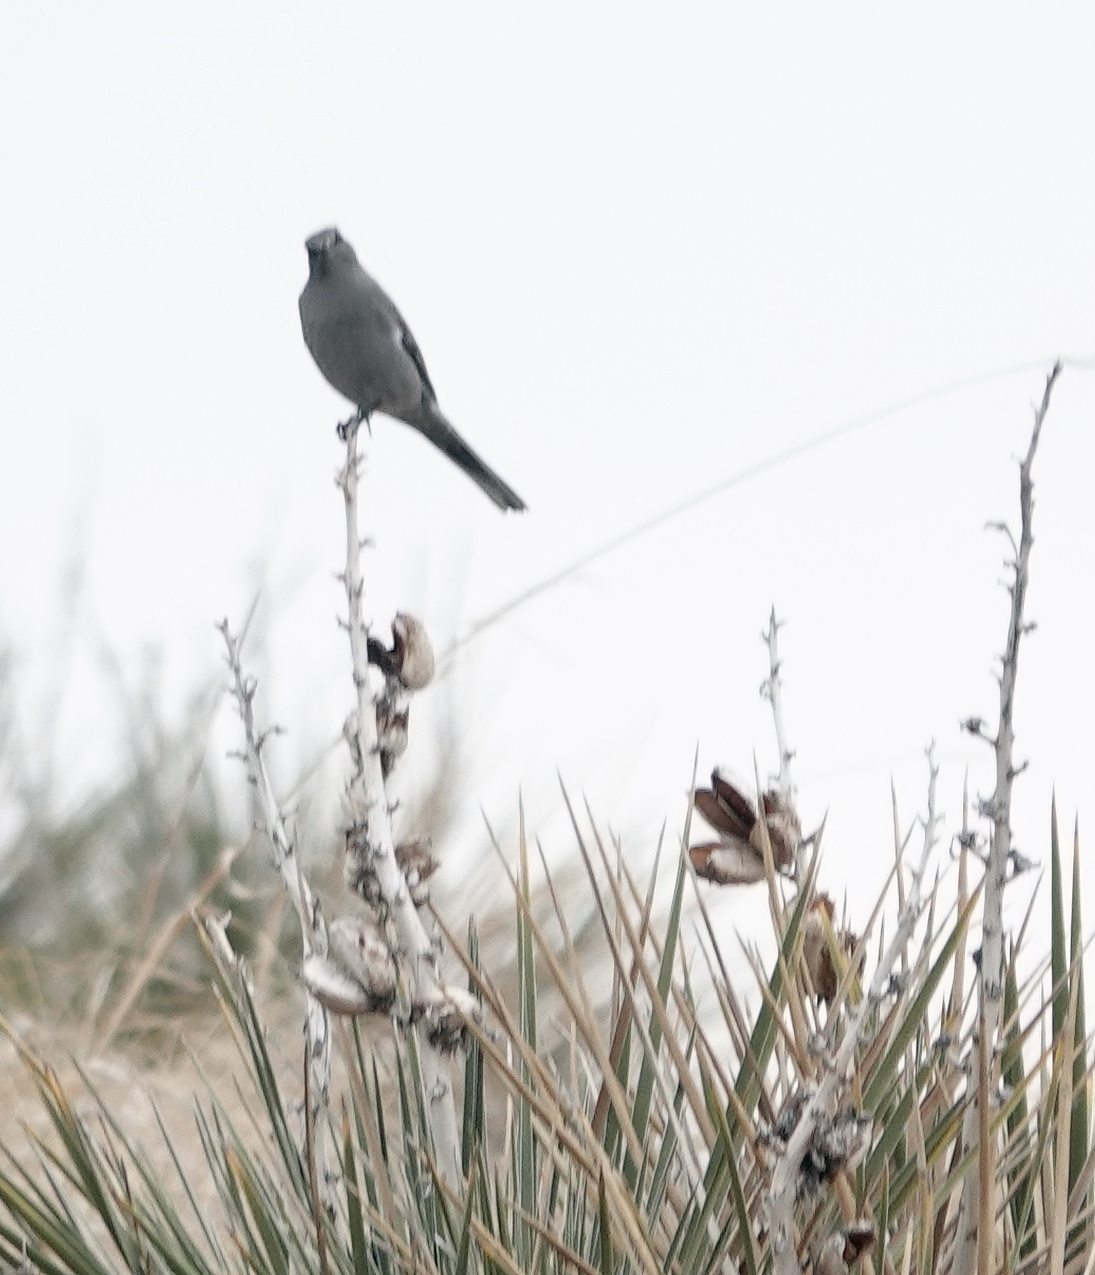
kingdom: Animalia
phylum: Chordata
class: Aves
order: Passeriformes
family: Turdidae
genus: Myadestes
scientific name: Myadestes townsendi
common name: Townsend's solitaire
